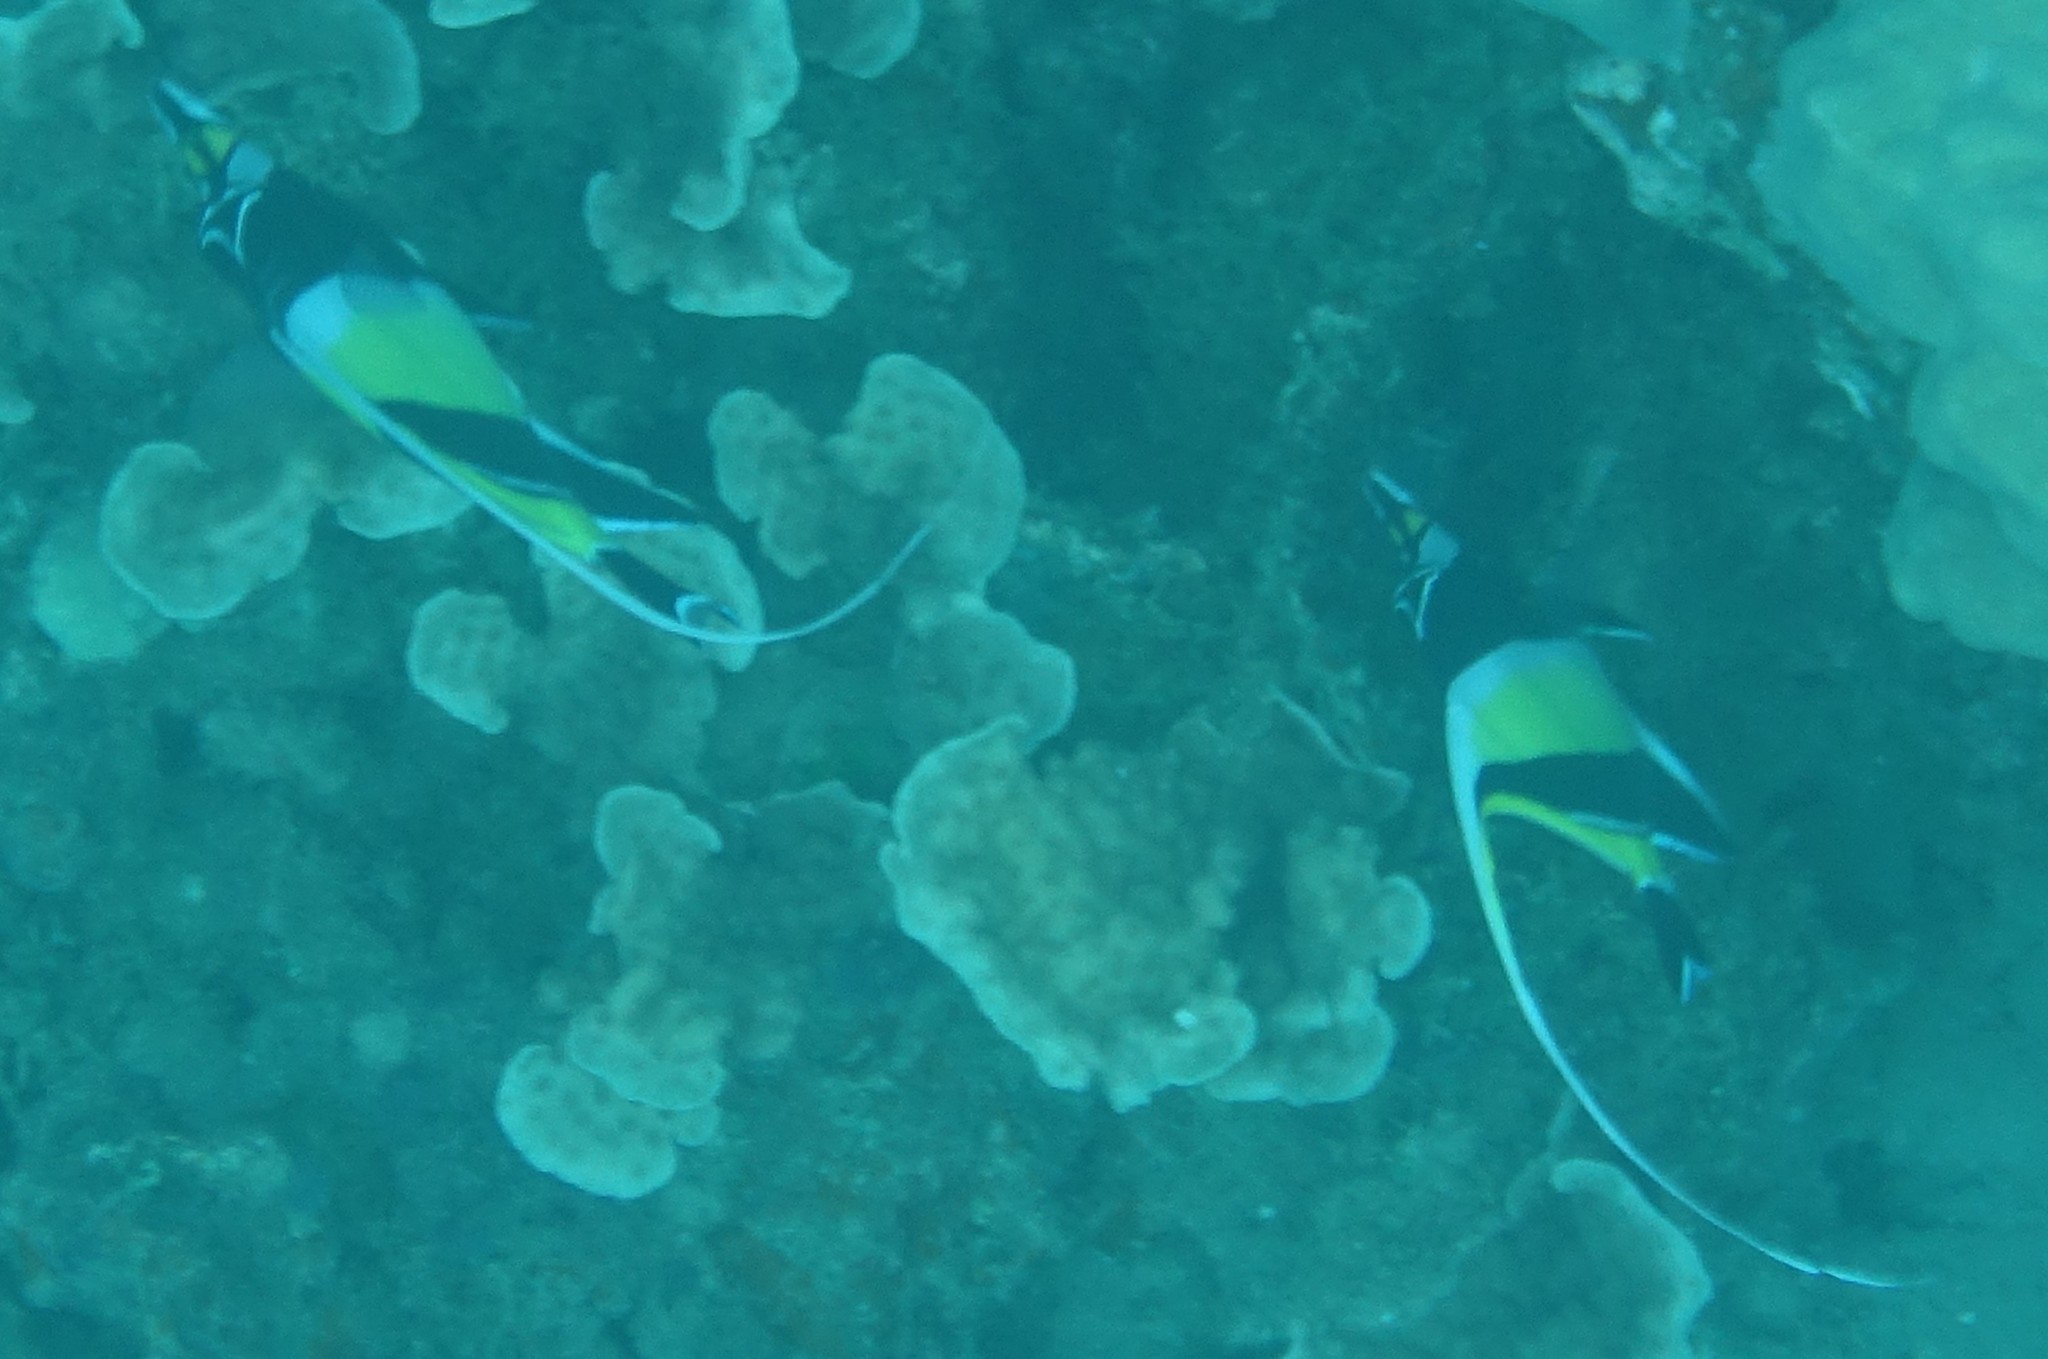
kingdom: Animalia
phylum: Chordata
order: Perciformes
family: Zanclidae
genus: Zanclus
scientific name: Zanclus cornutus
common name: Moorish idol
